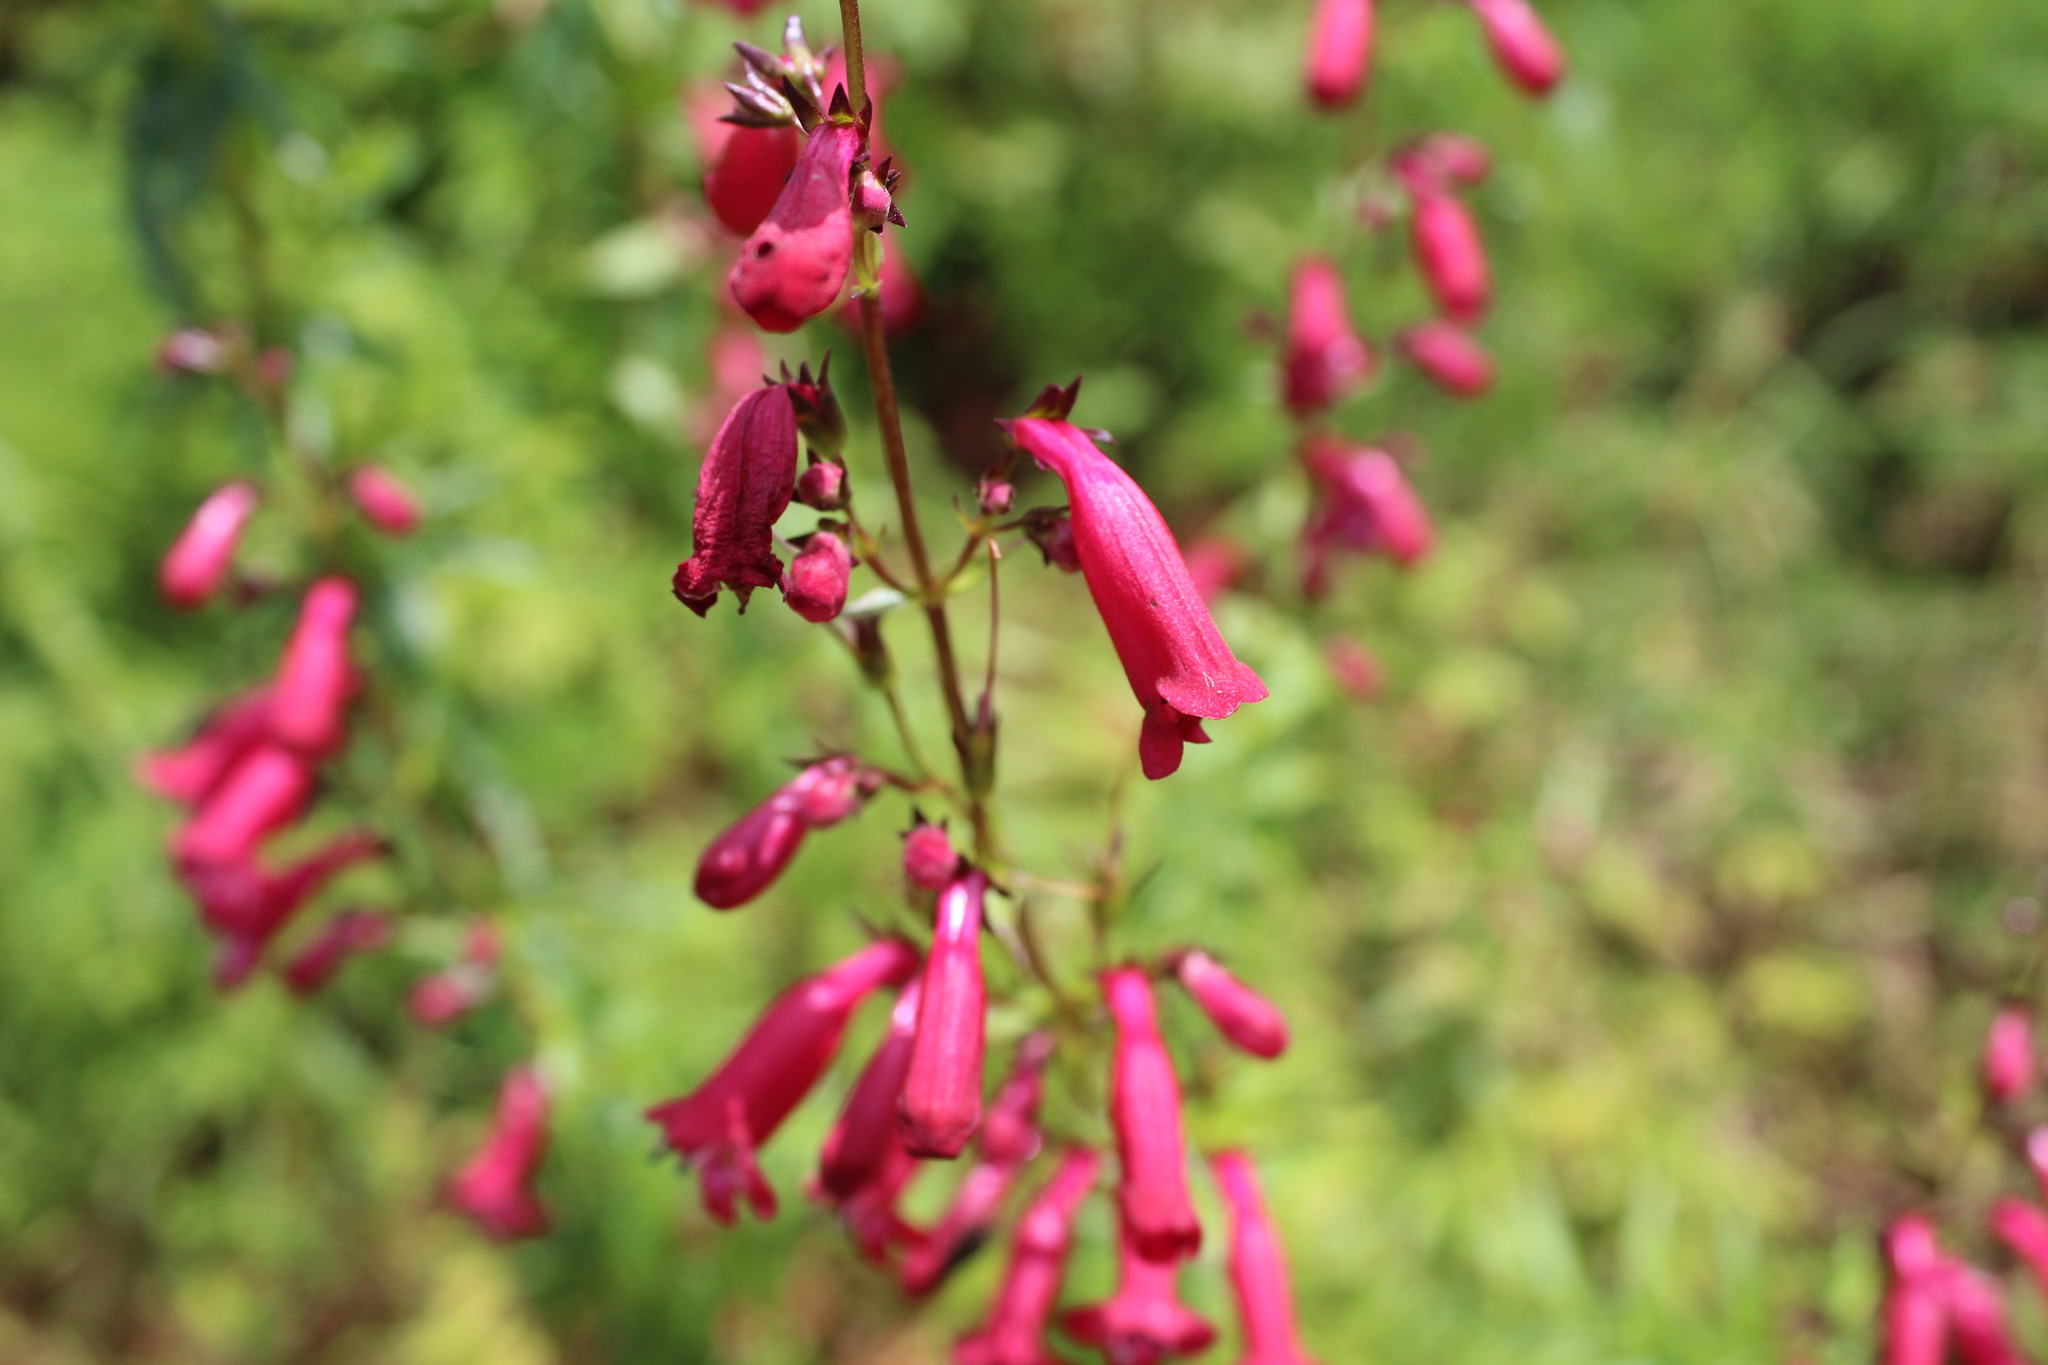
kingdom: Plantae
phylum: Tracheophyta
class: Magnoliopsida
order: Lamiales
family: Plantaginaceae
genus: Penstemon
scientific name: Penstemon roseus
